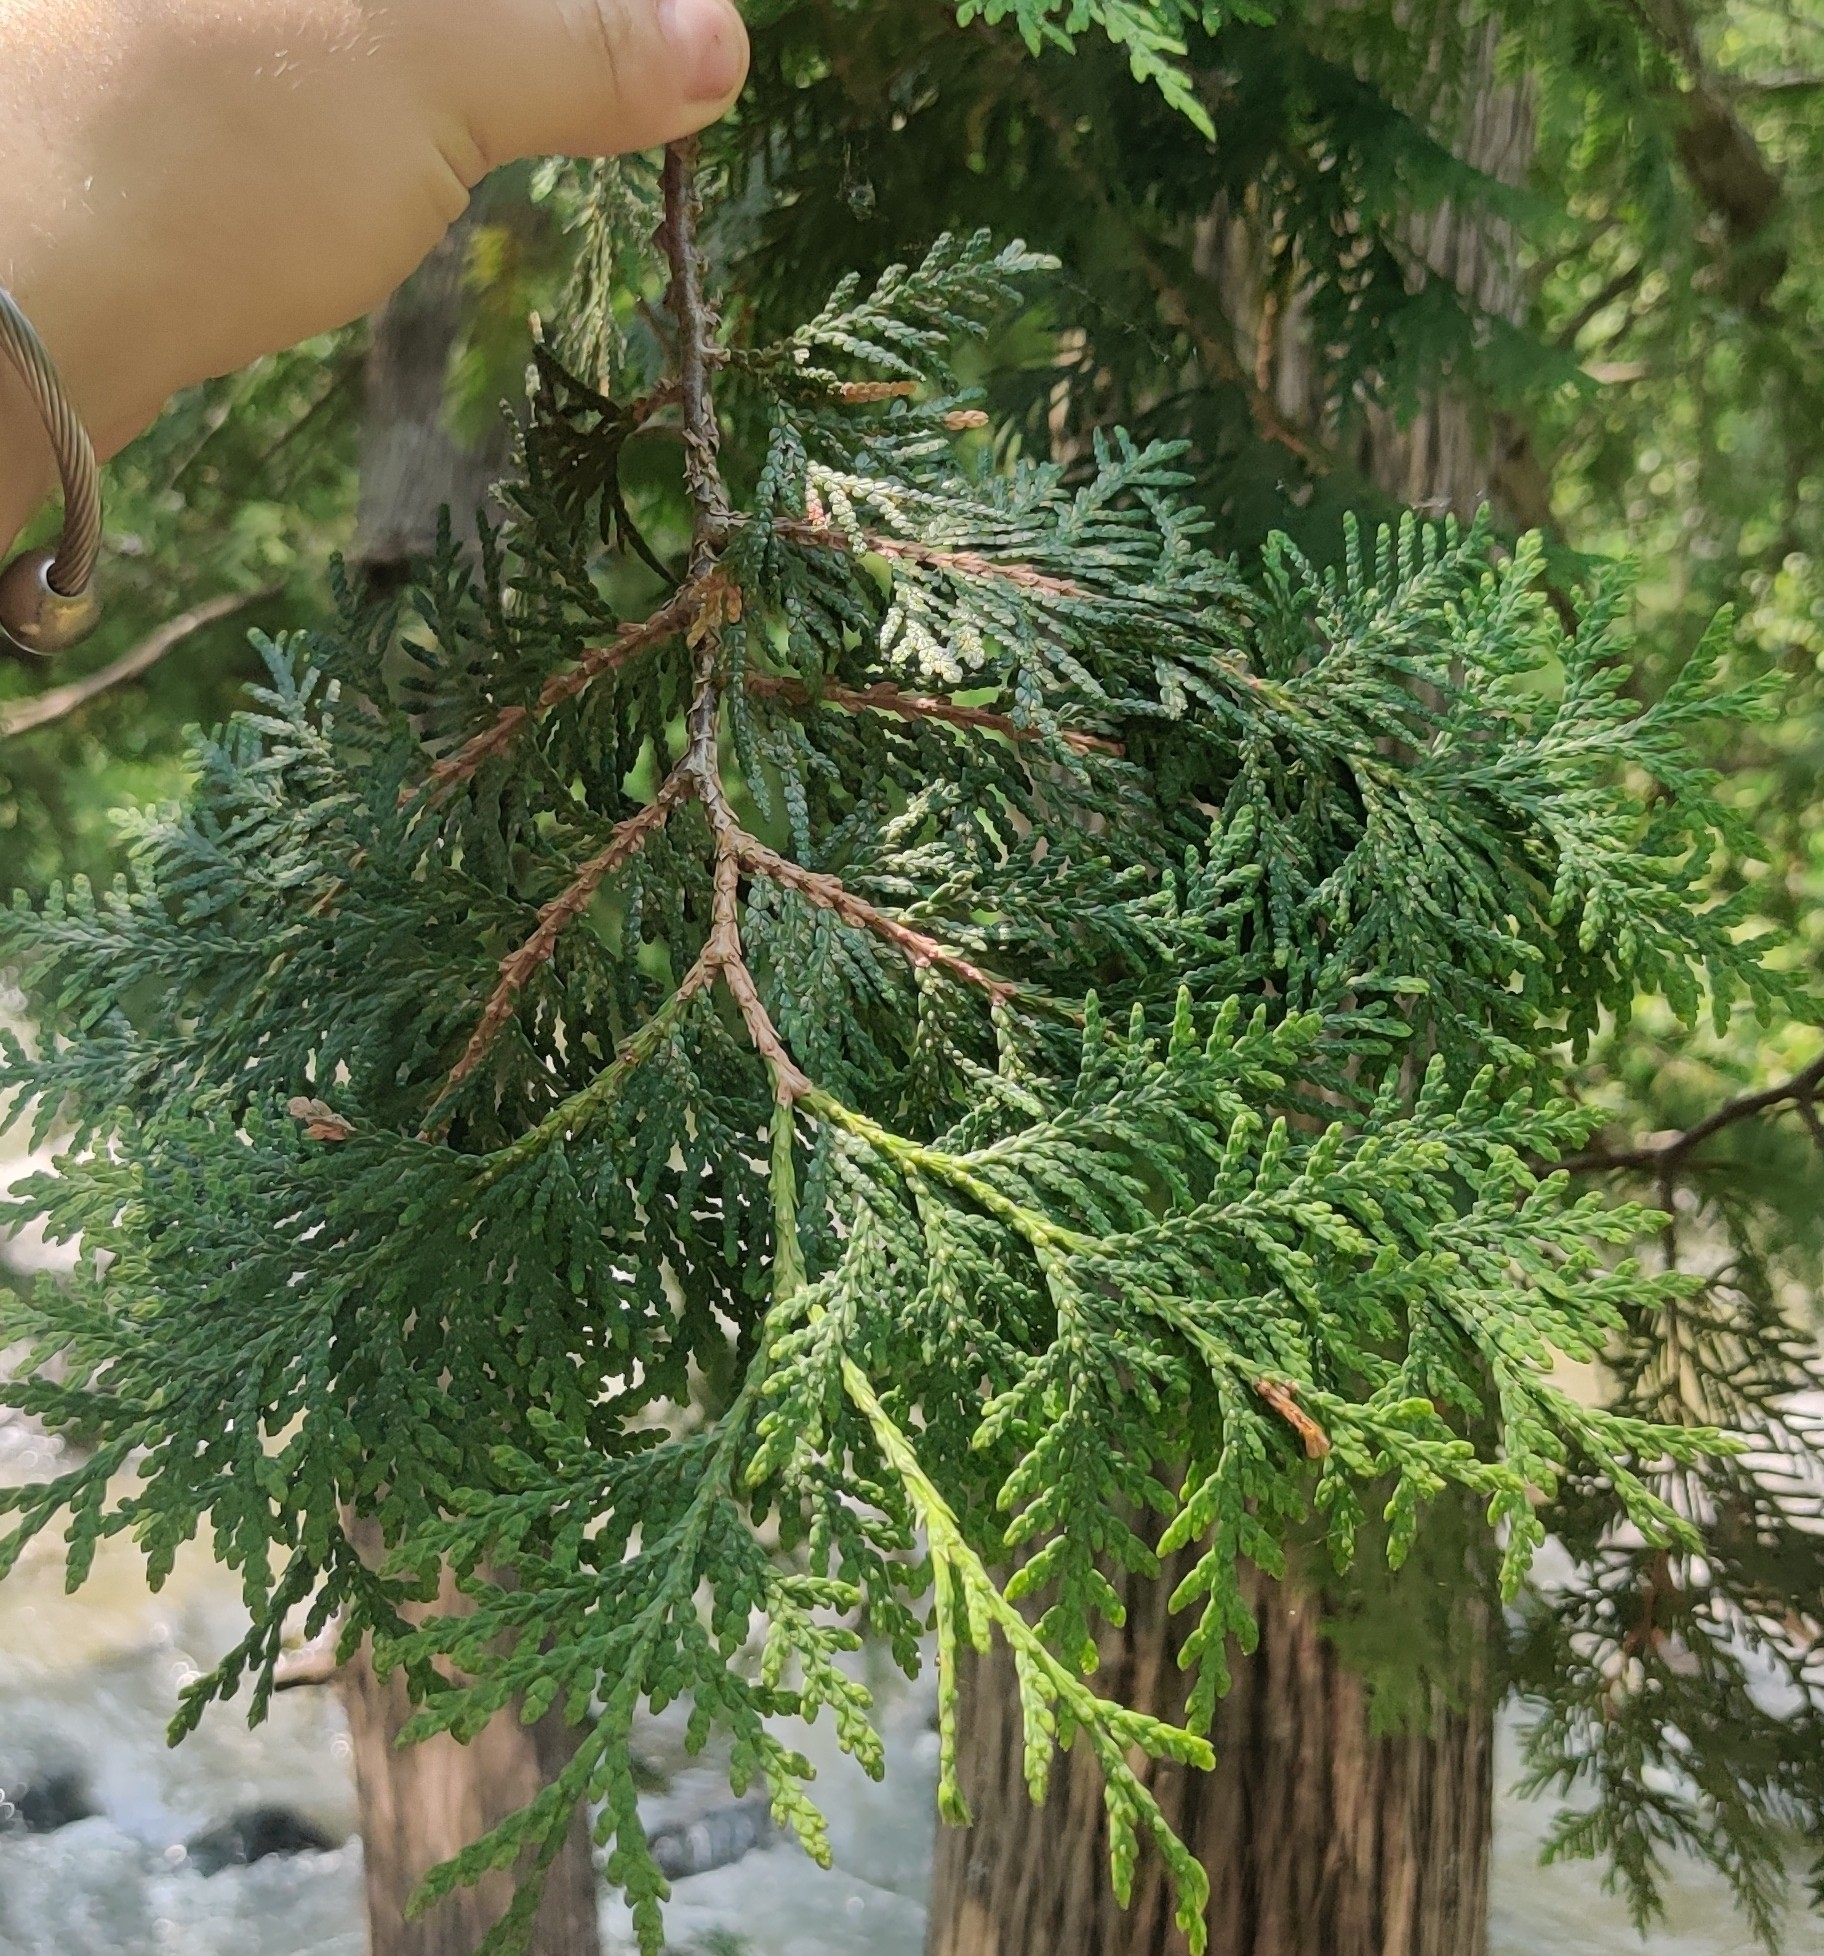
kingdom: Plantae
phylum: Tracheophyta
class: Pinopsida
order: Pinales
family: Cupressaceae
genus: Thuja
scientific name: Thuja occidentalis
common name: Northern white-cedar
